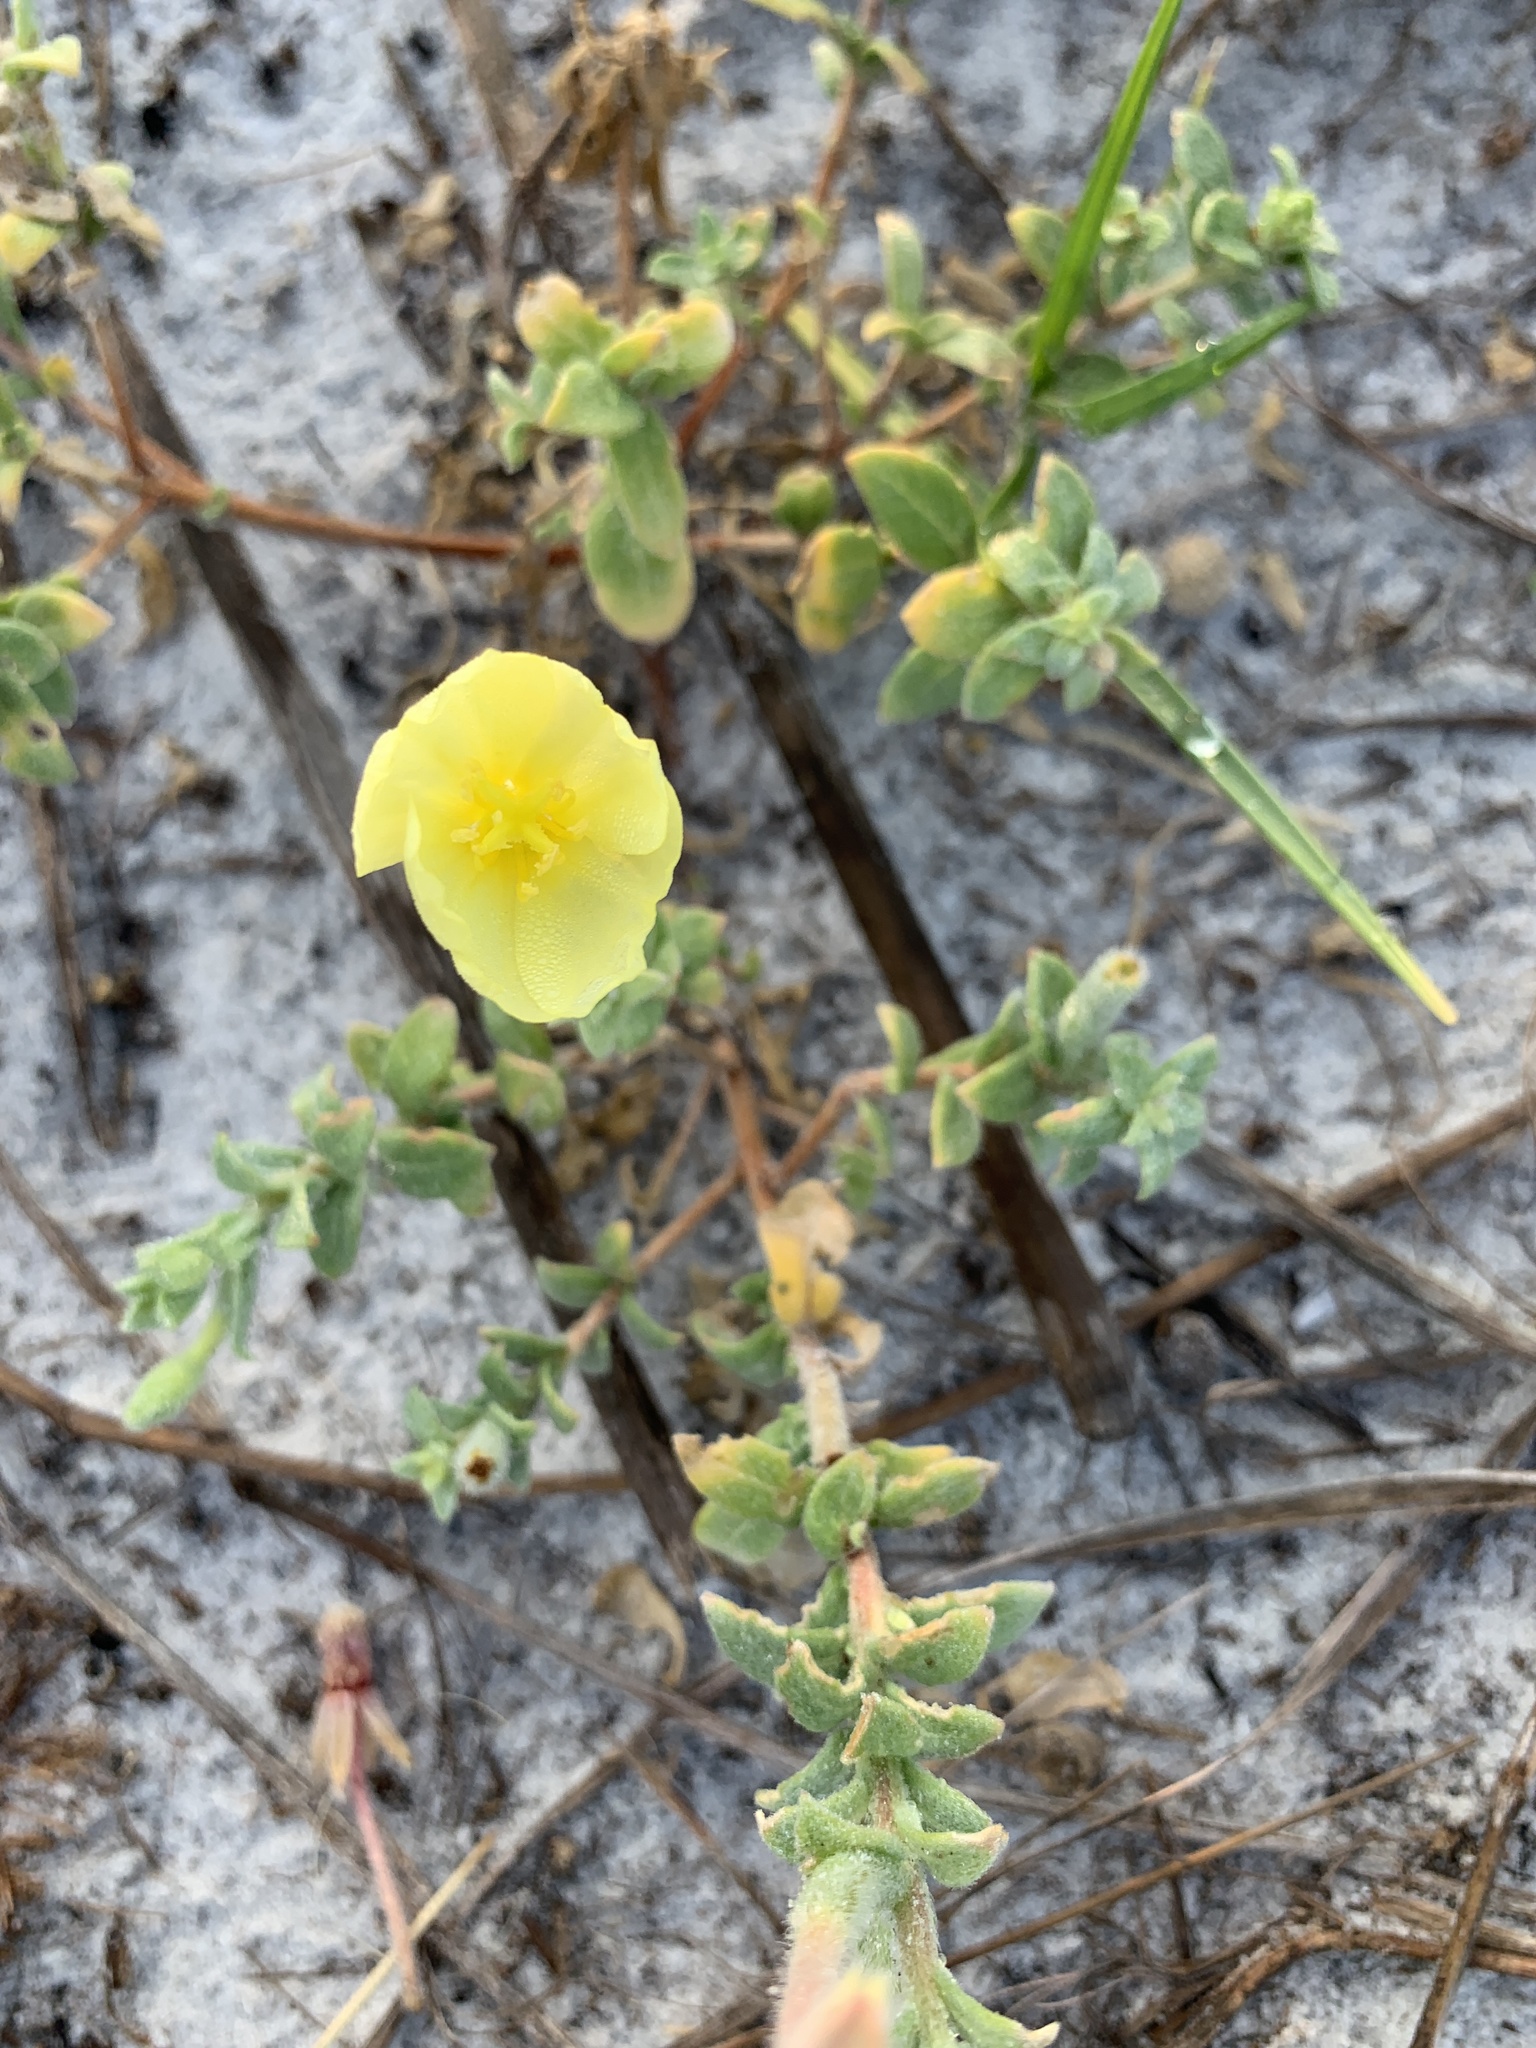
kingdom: Plantae
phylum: Tracheophyta
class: Magnoliopsida
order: Myrtales
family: Onagraceae
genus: Oenothera
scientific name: Oenothera drummondii
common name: Beach evening-primrose
